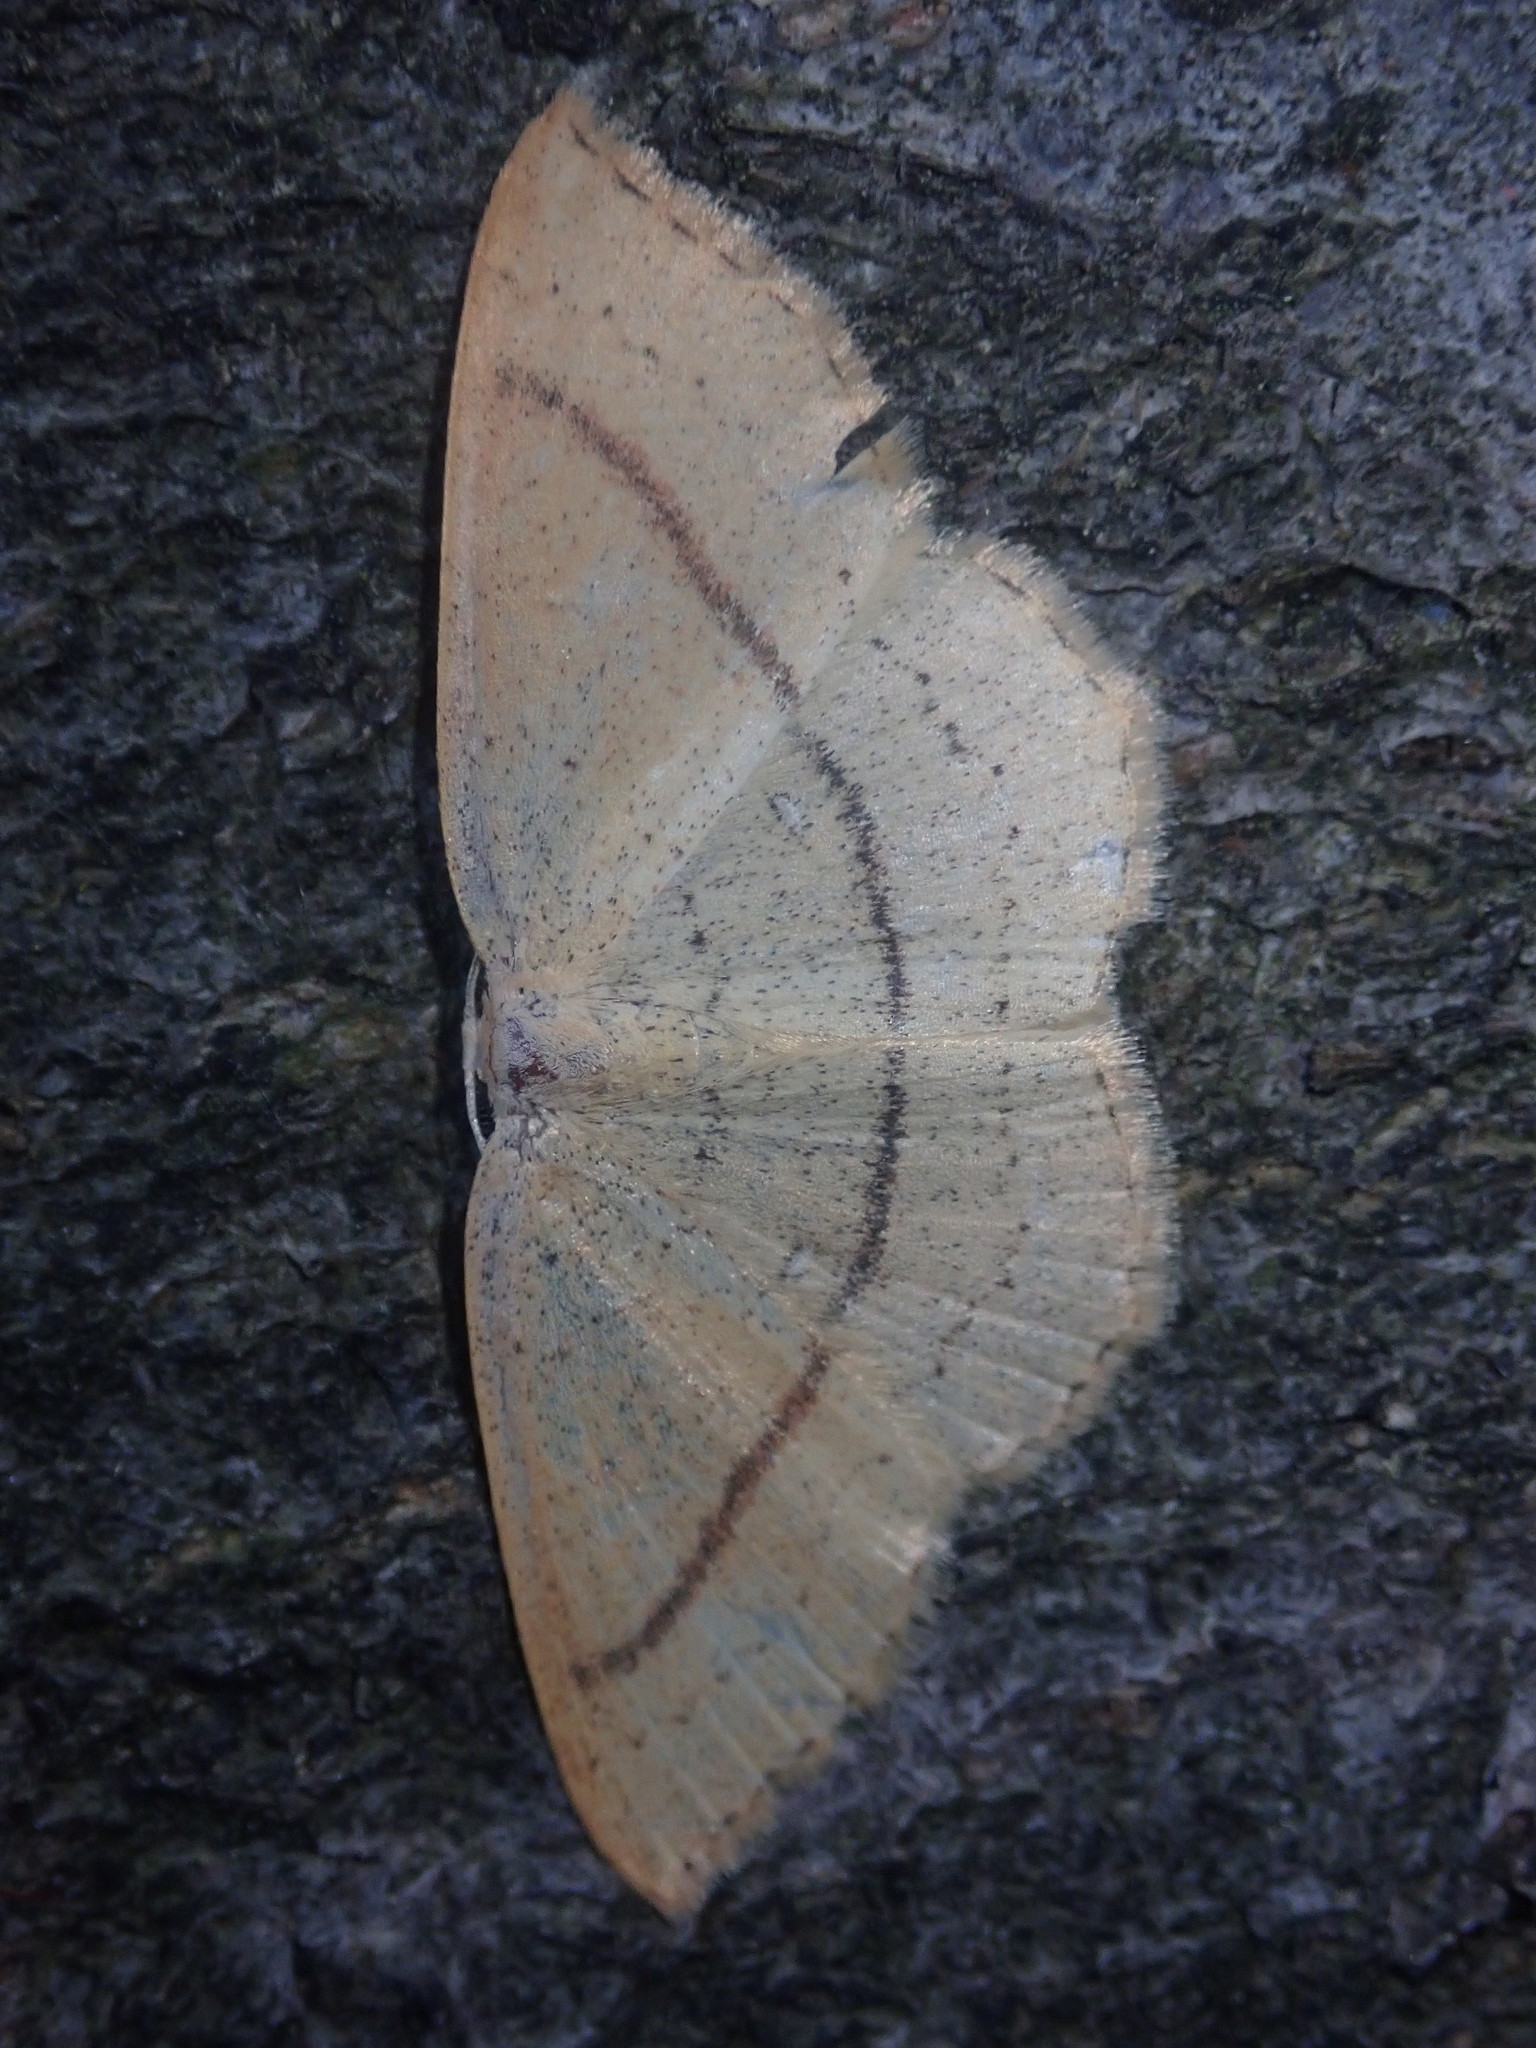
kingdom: Animalia
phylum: Arthropoda
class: Insecta
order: Lepidoptera
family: Geometridae
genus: Cyclophora
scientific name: Cyclophora linearia
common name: Clay triple-lines
